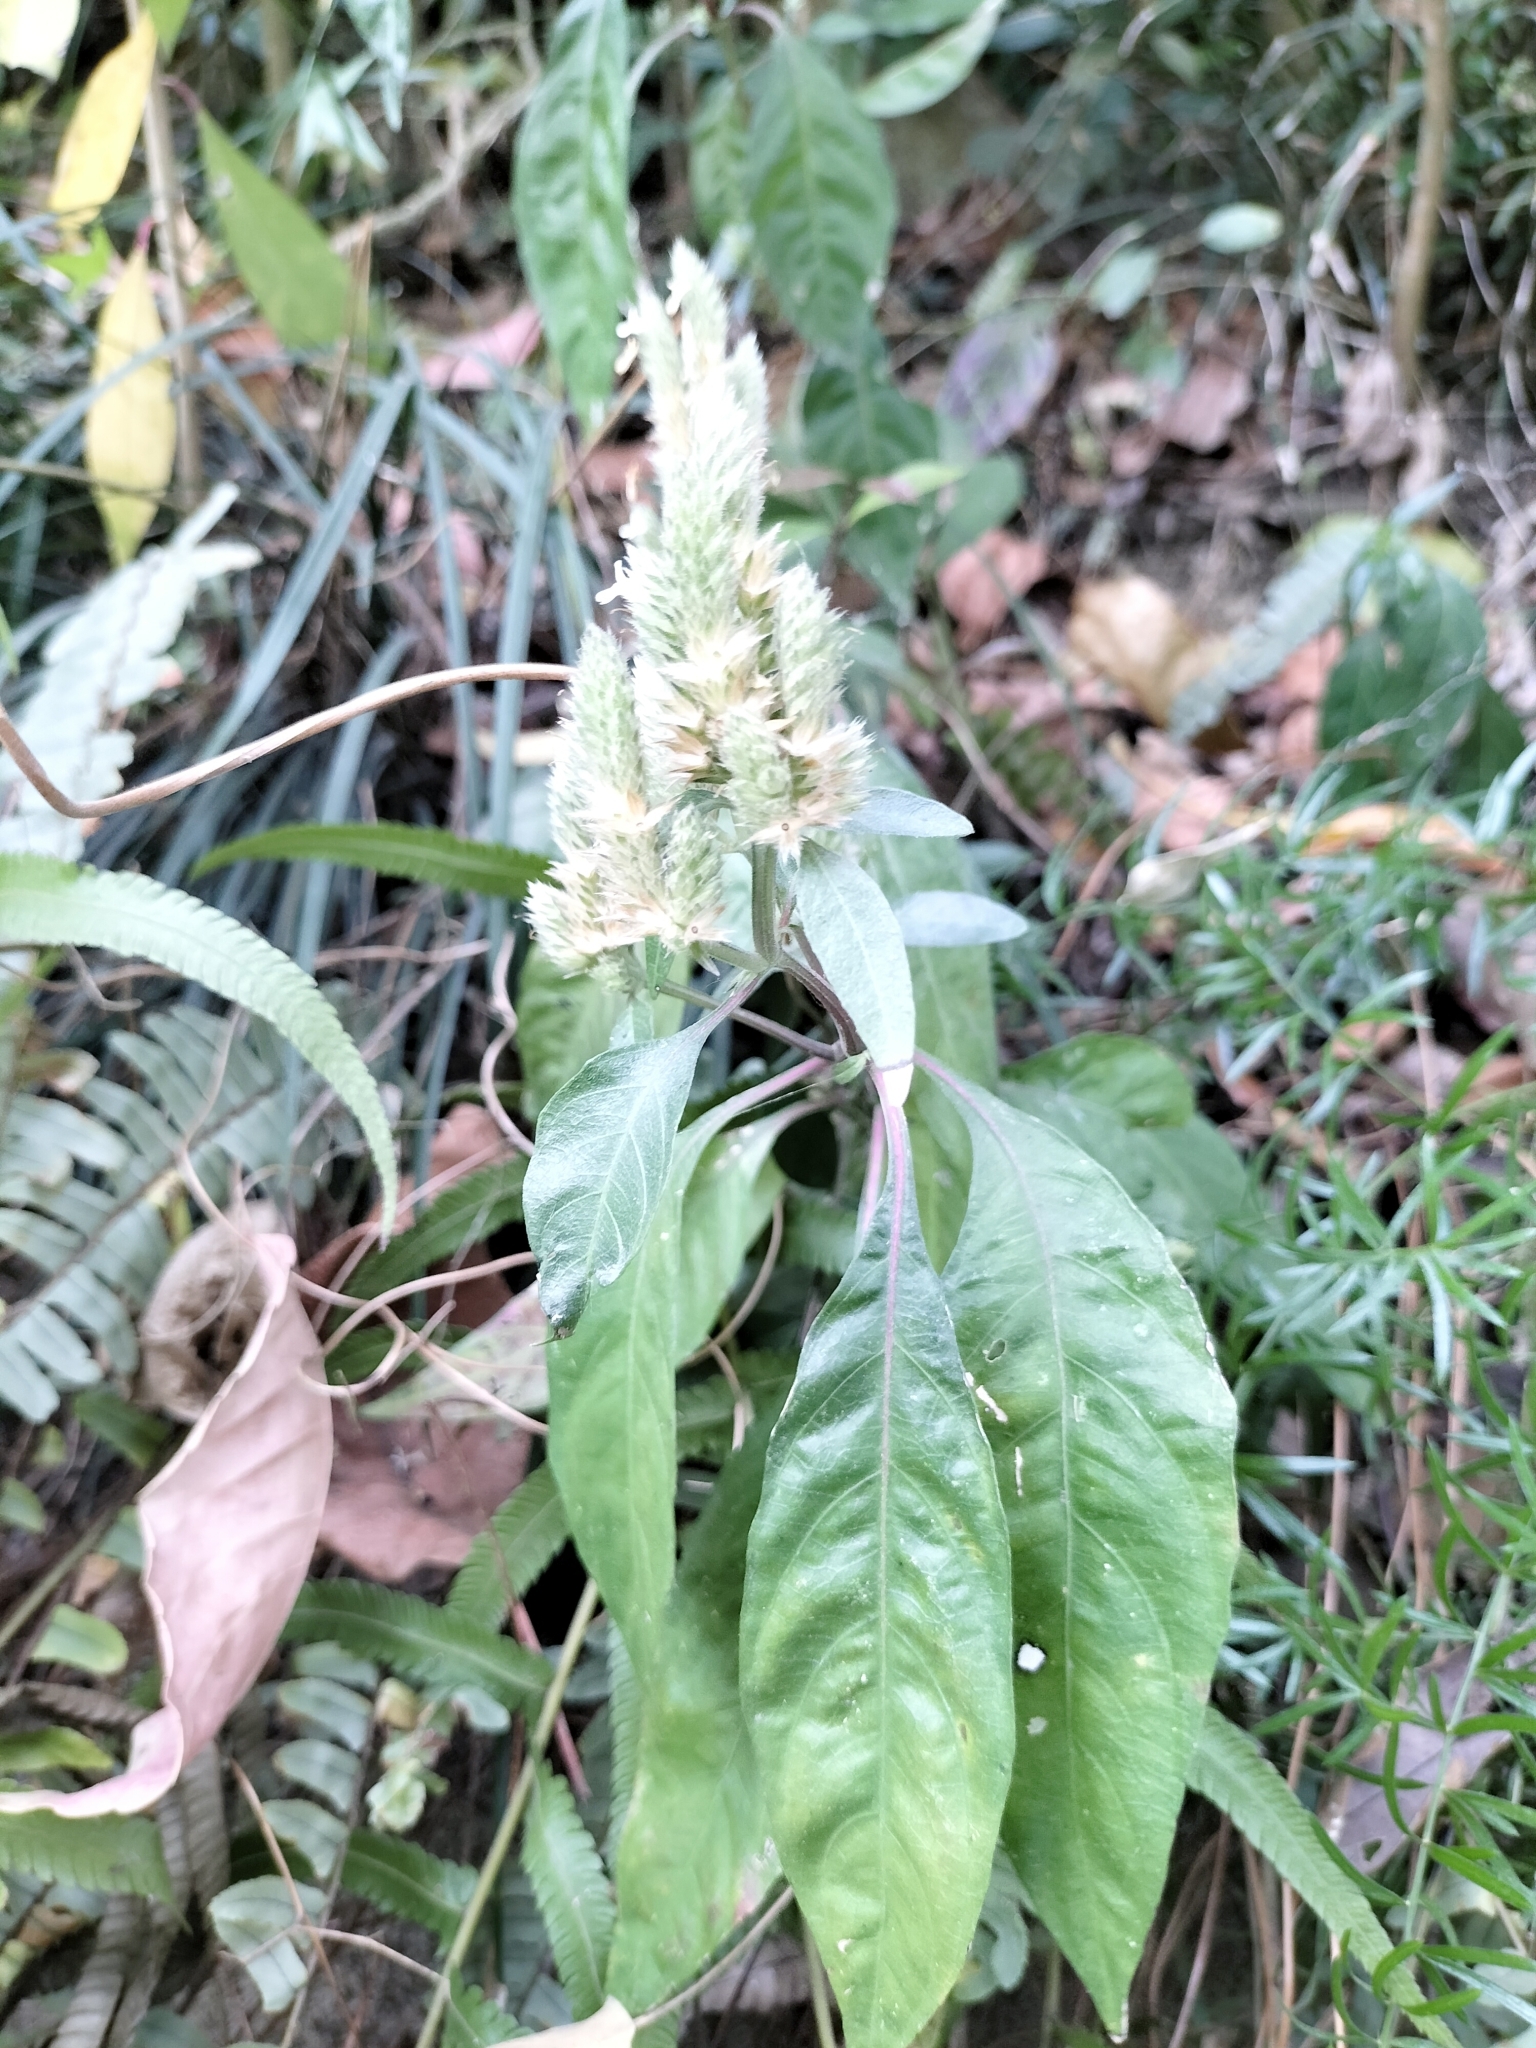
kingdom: Plantae
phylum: Tracheophyta
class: Magnoliopsida
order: Lamiales
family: Acanthaceae
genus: Lepidagathis
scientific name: Lepidagathis formosensis
